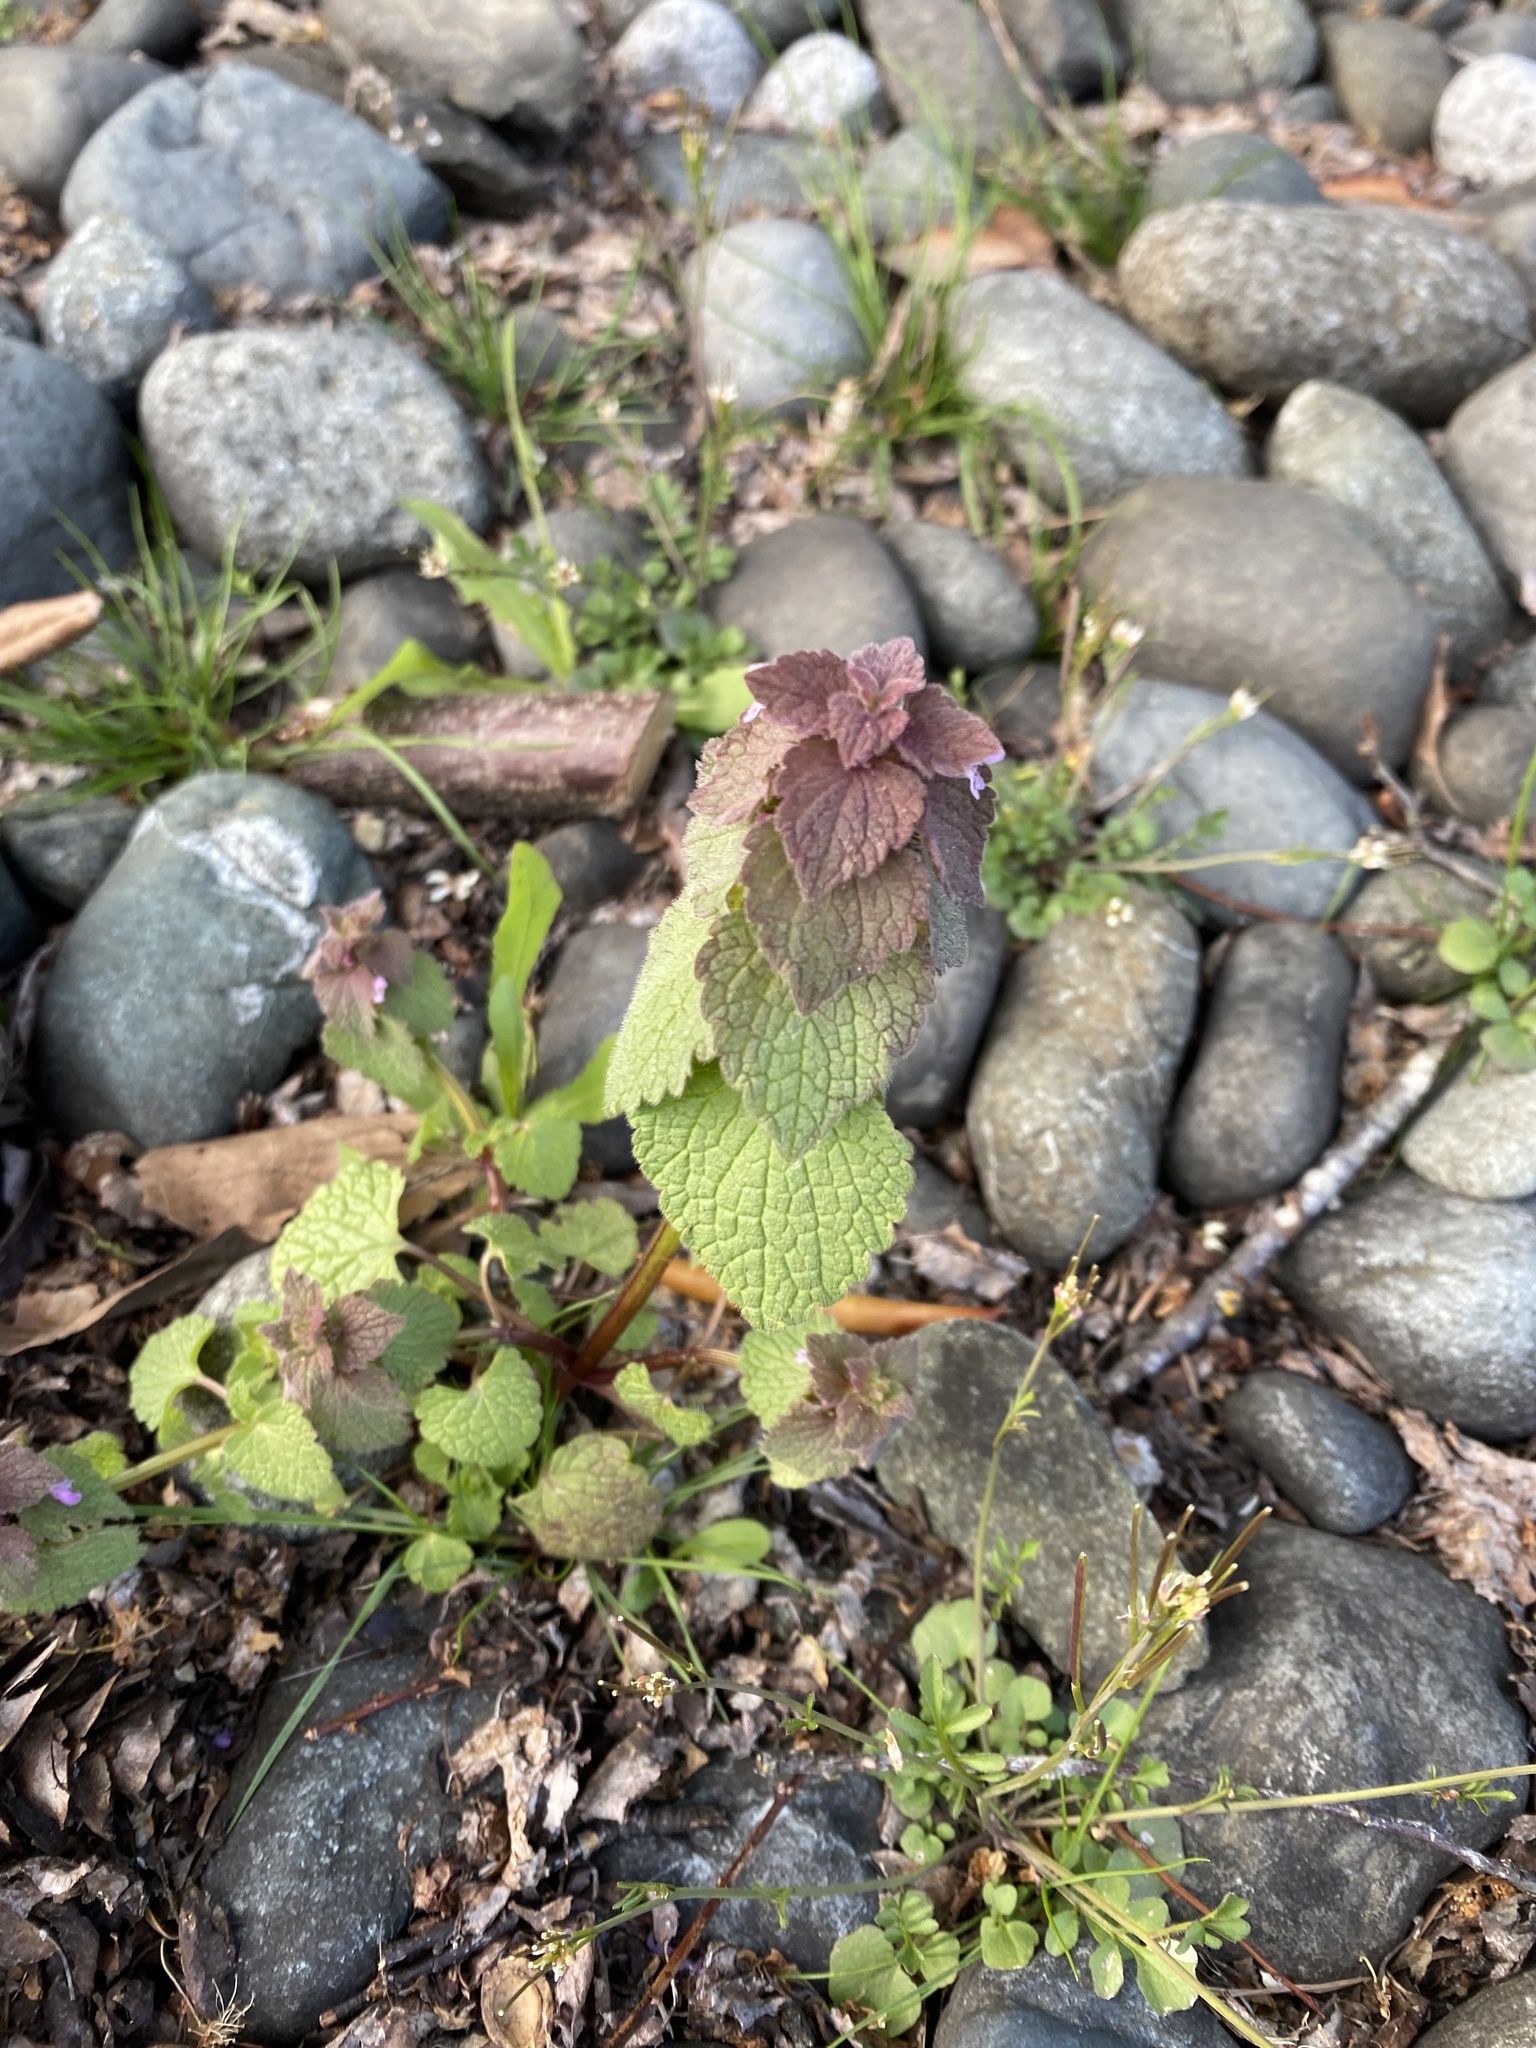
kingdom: Plantae
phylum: Tracheophyta
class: Magnoliopsida
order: Lamiales
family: Lamiaceae
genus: Lamium
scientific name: Lamium purpureum
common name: Red dead-nettle
